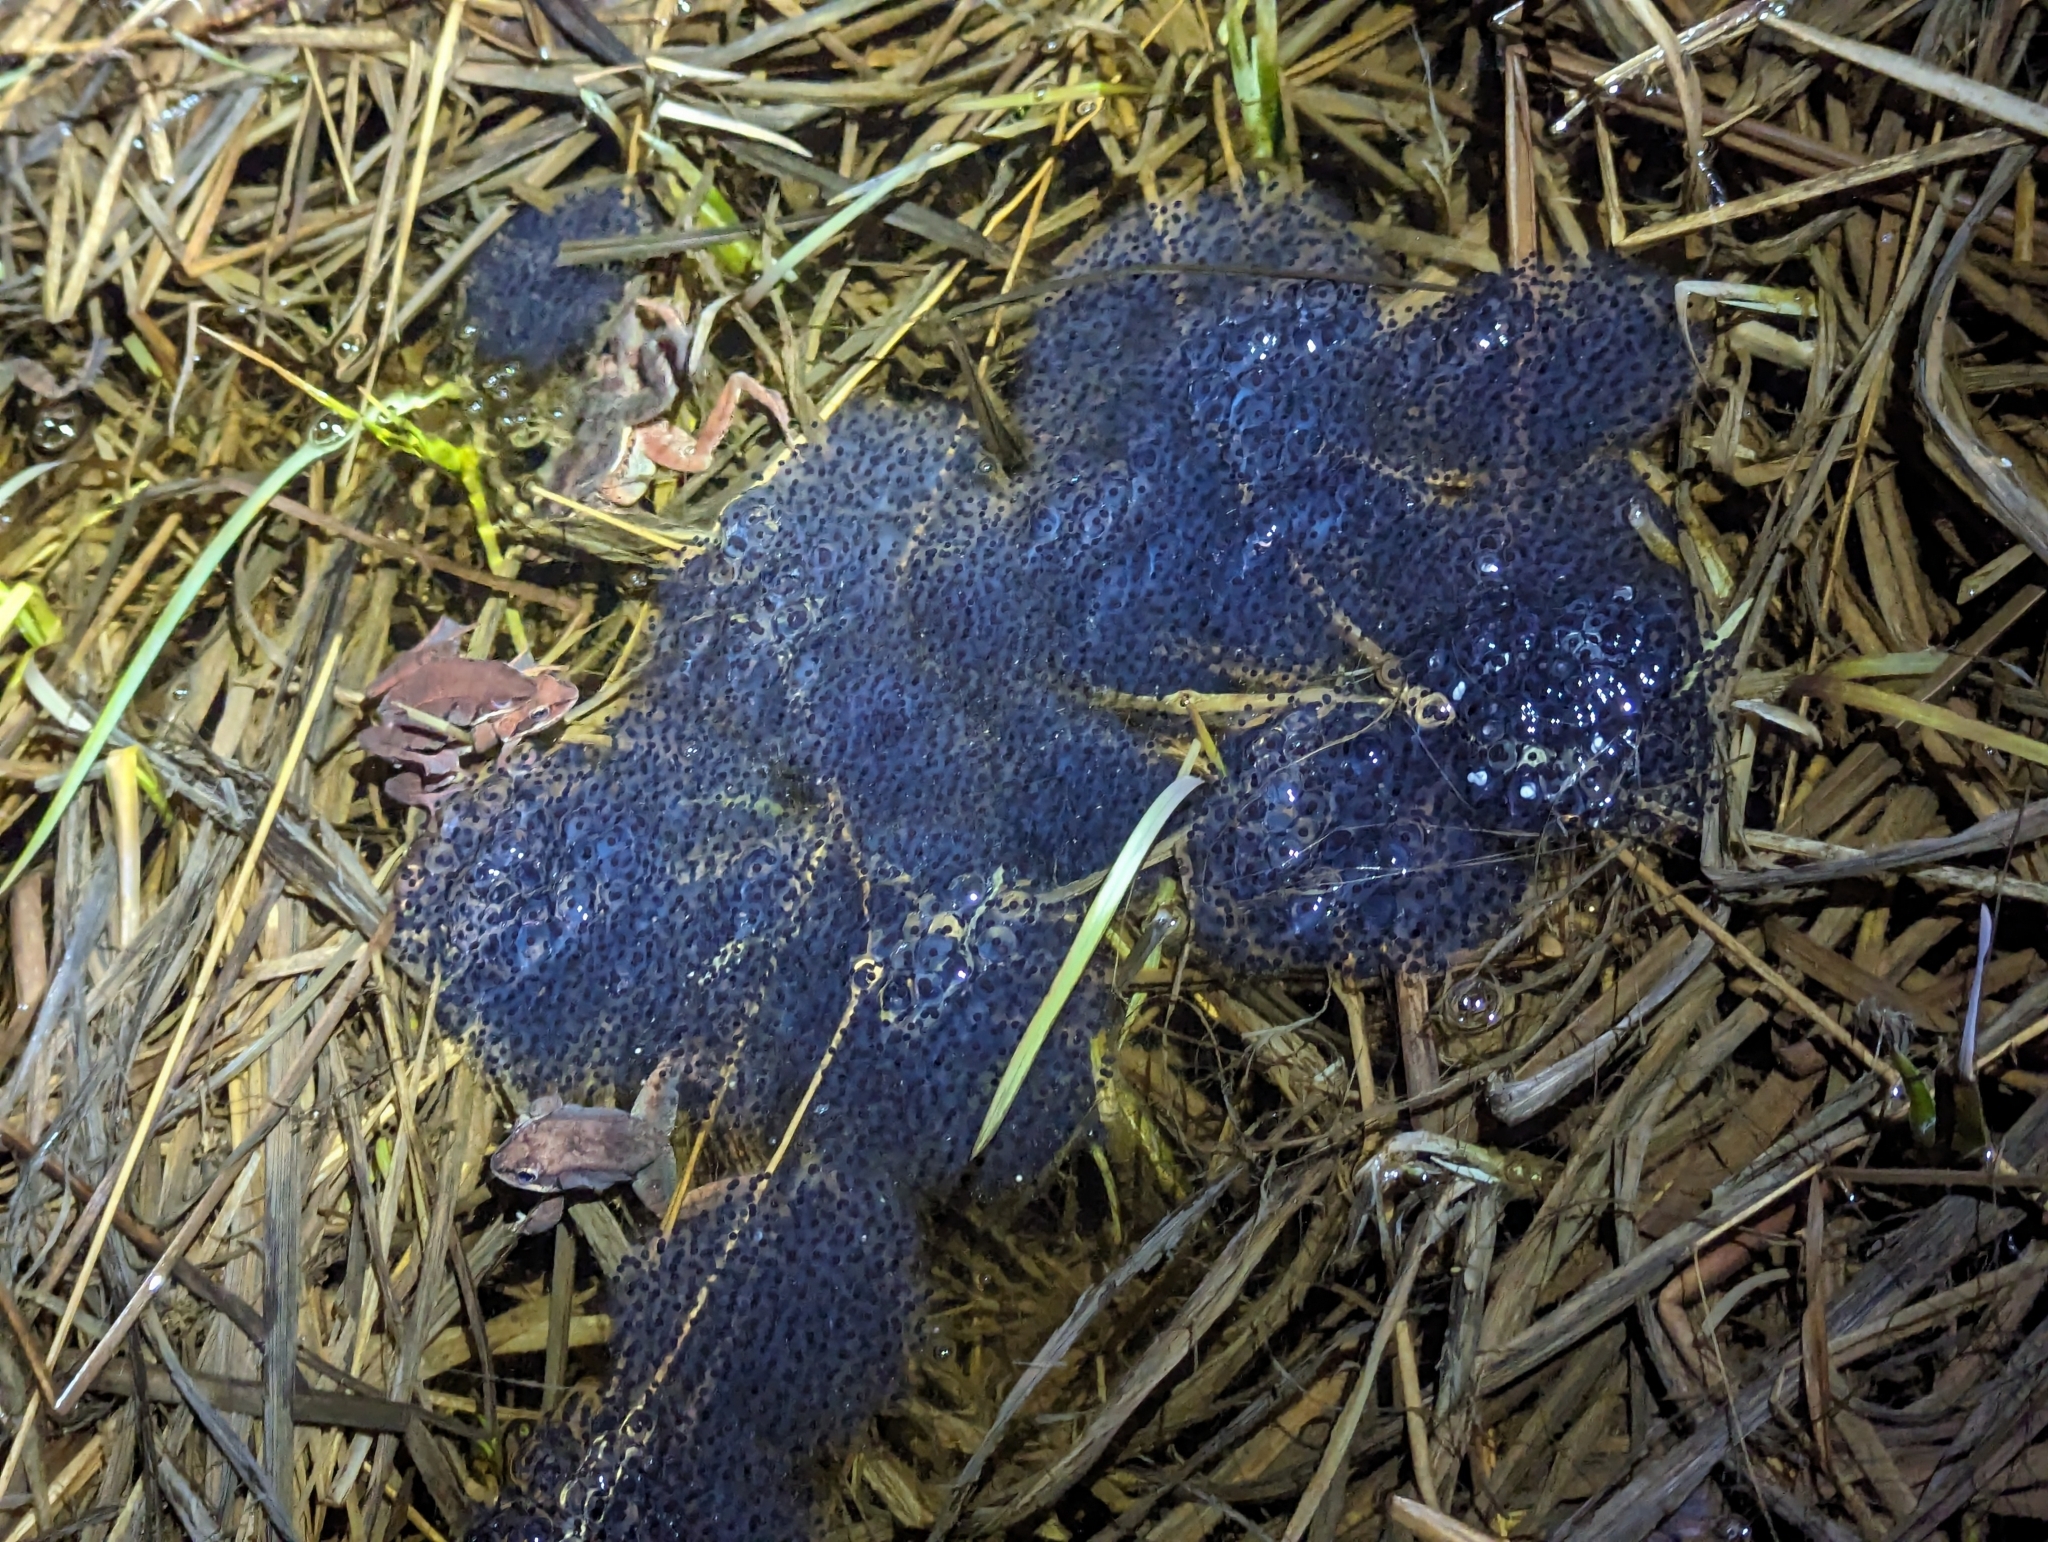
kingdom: Animalia
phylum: Chordata
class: Amphibia
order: Anura
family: Ranidae
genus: Lithobates
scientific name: Lithobates sylvaticus
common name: Wood frog
